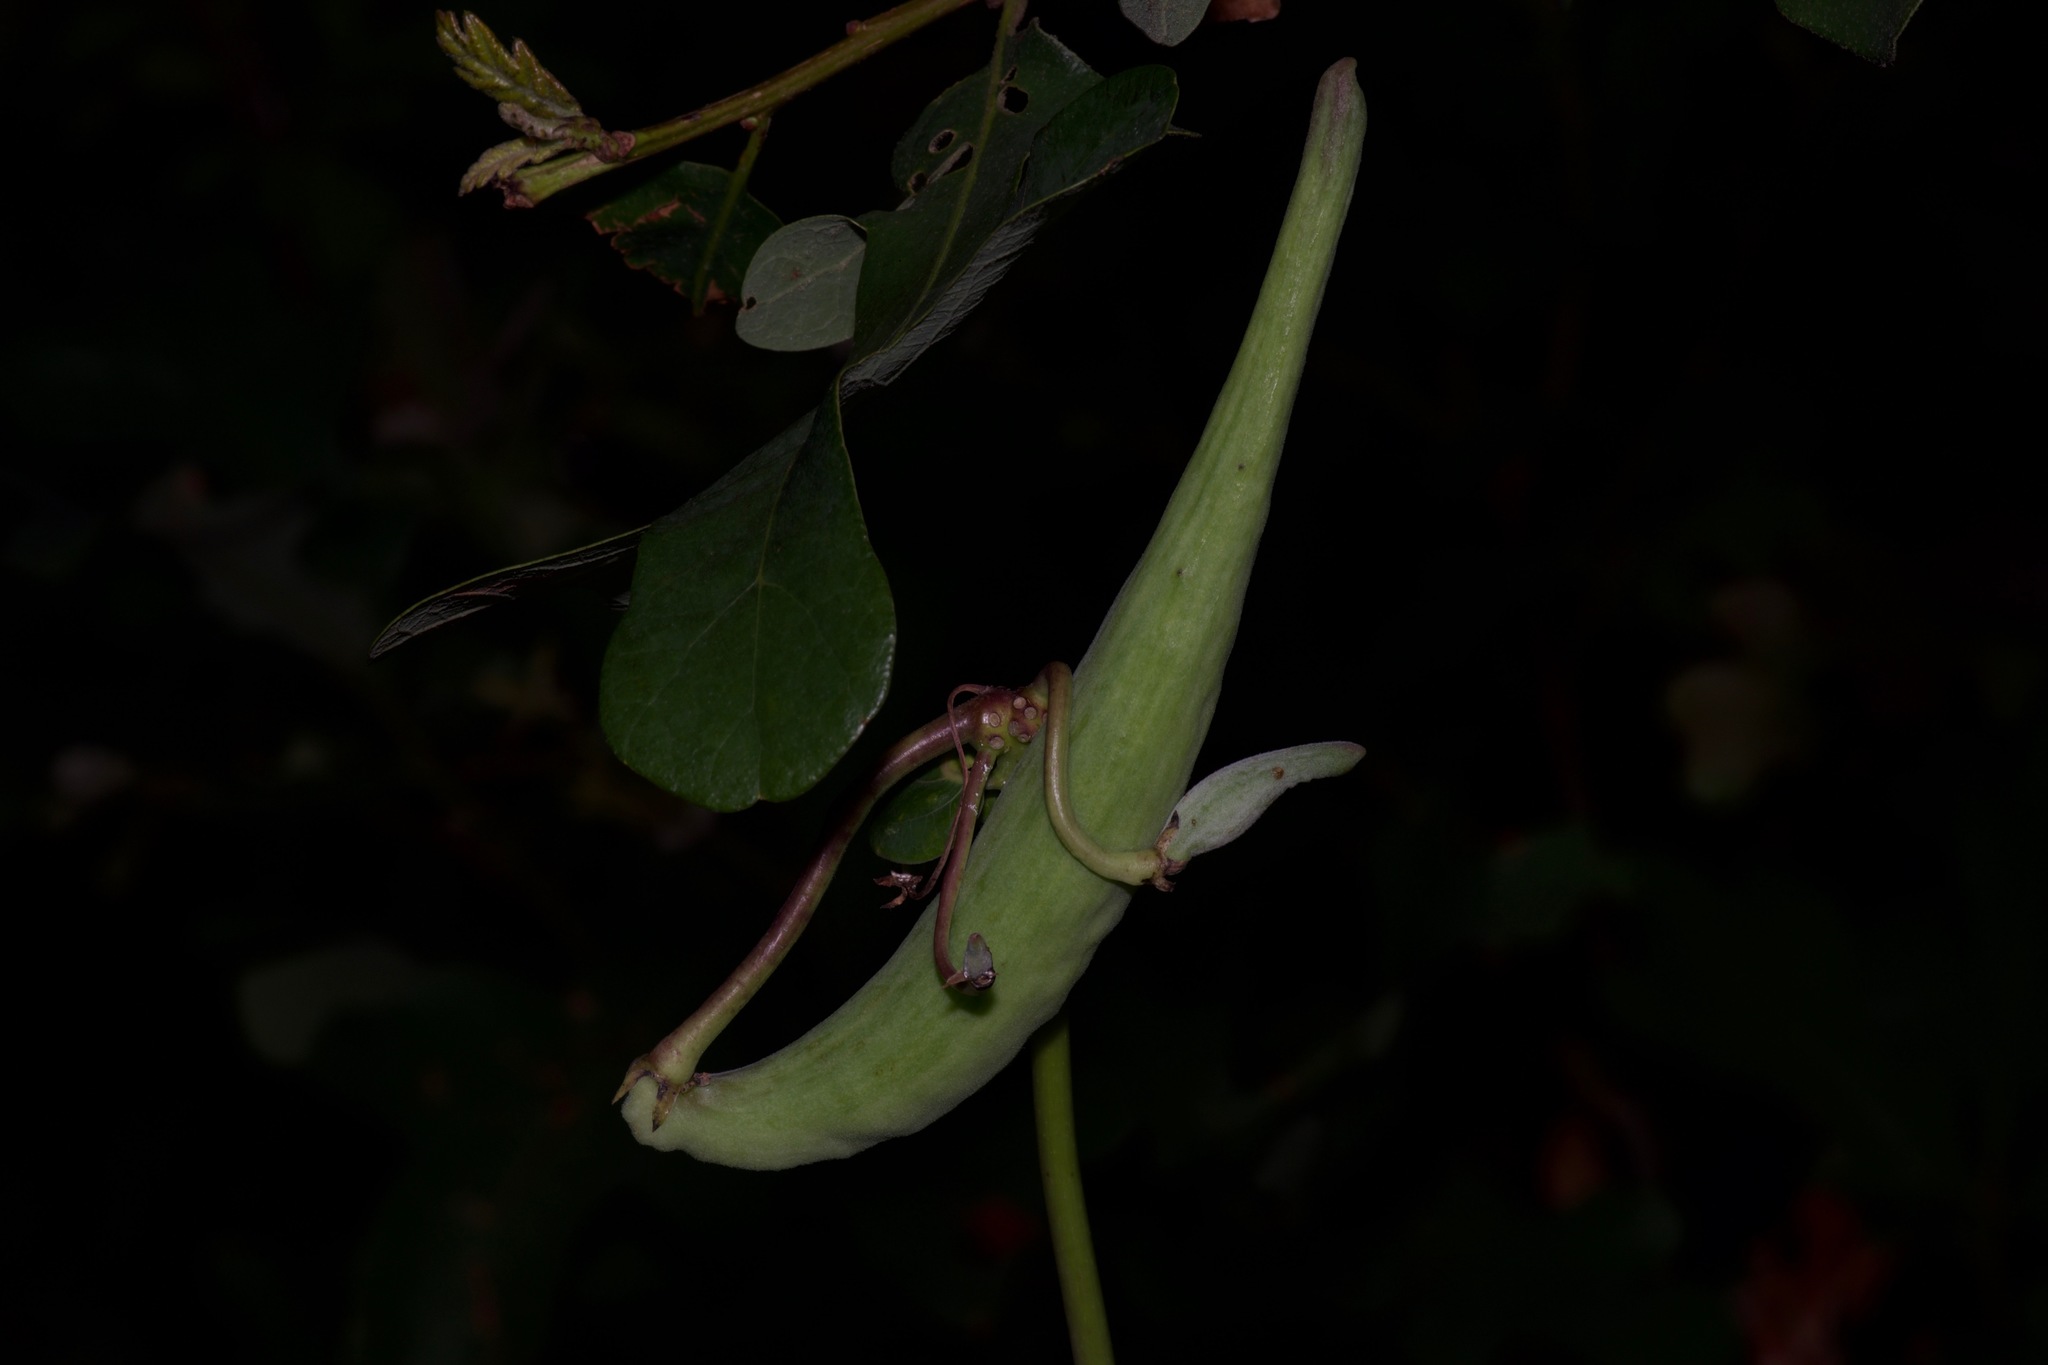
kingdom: Plantae
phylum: Tracheophyta
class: Magnoliopsida
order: Gentianales
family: Apocynaceae
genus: Asclepias
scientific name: Asclepias amplexicaulis
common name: Blunt-leaf milkweed
